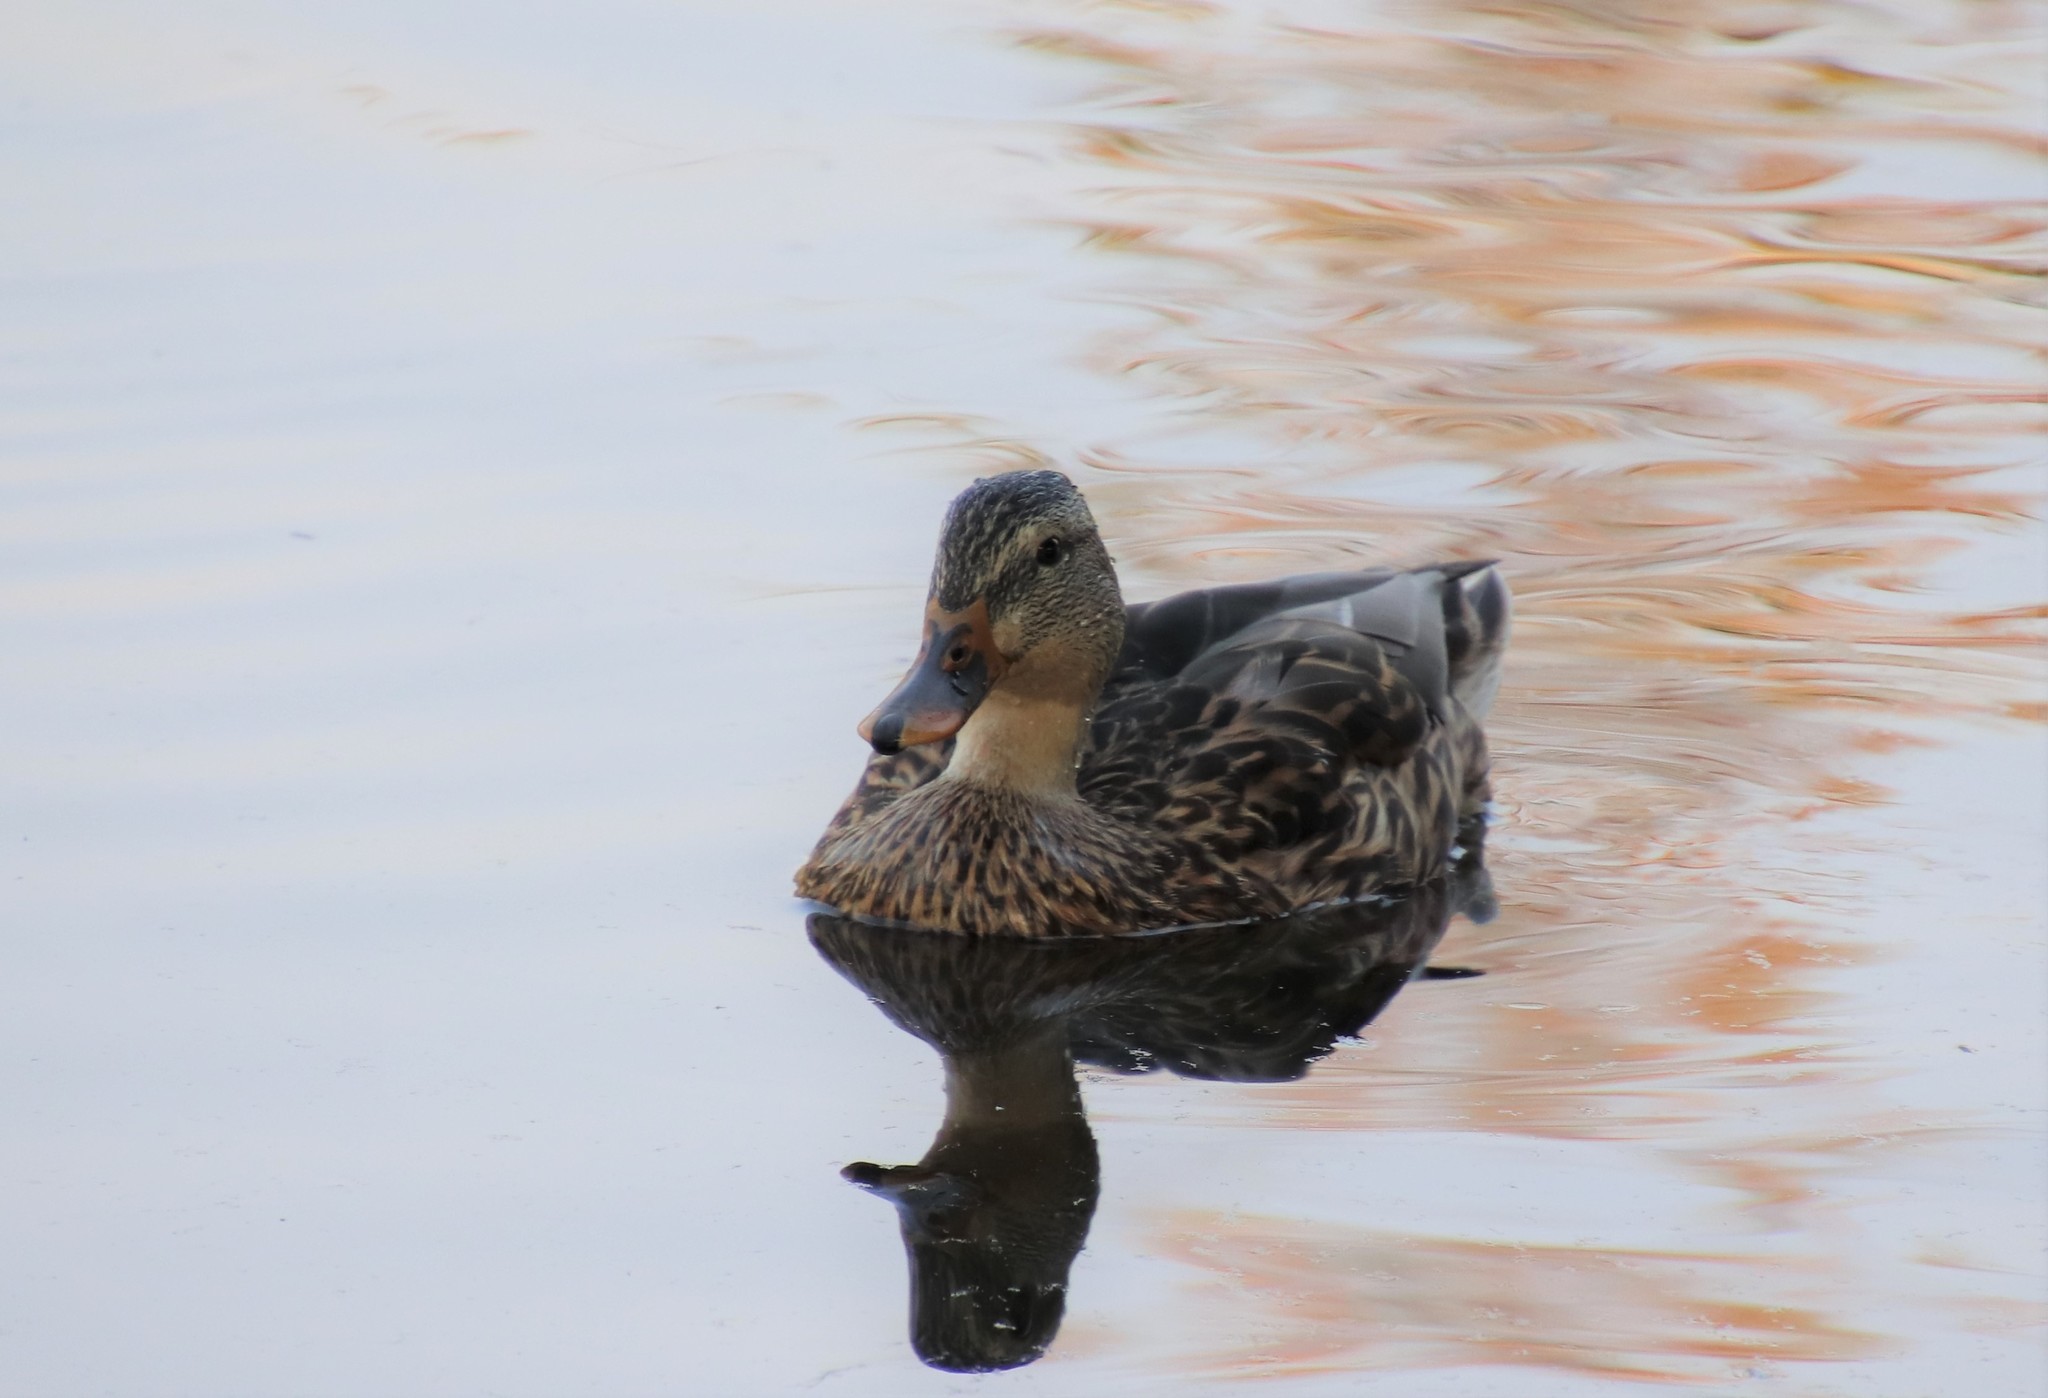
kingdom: Animalia
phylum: Chordata
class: Aves
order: Anseriformes
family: Anatidae
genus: Anas
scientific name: Anas platyrhynchos
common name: Mallard
